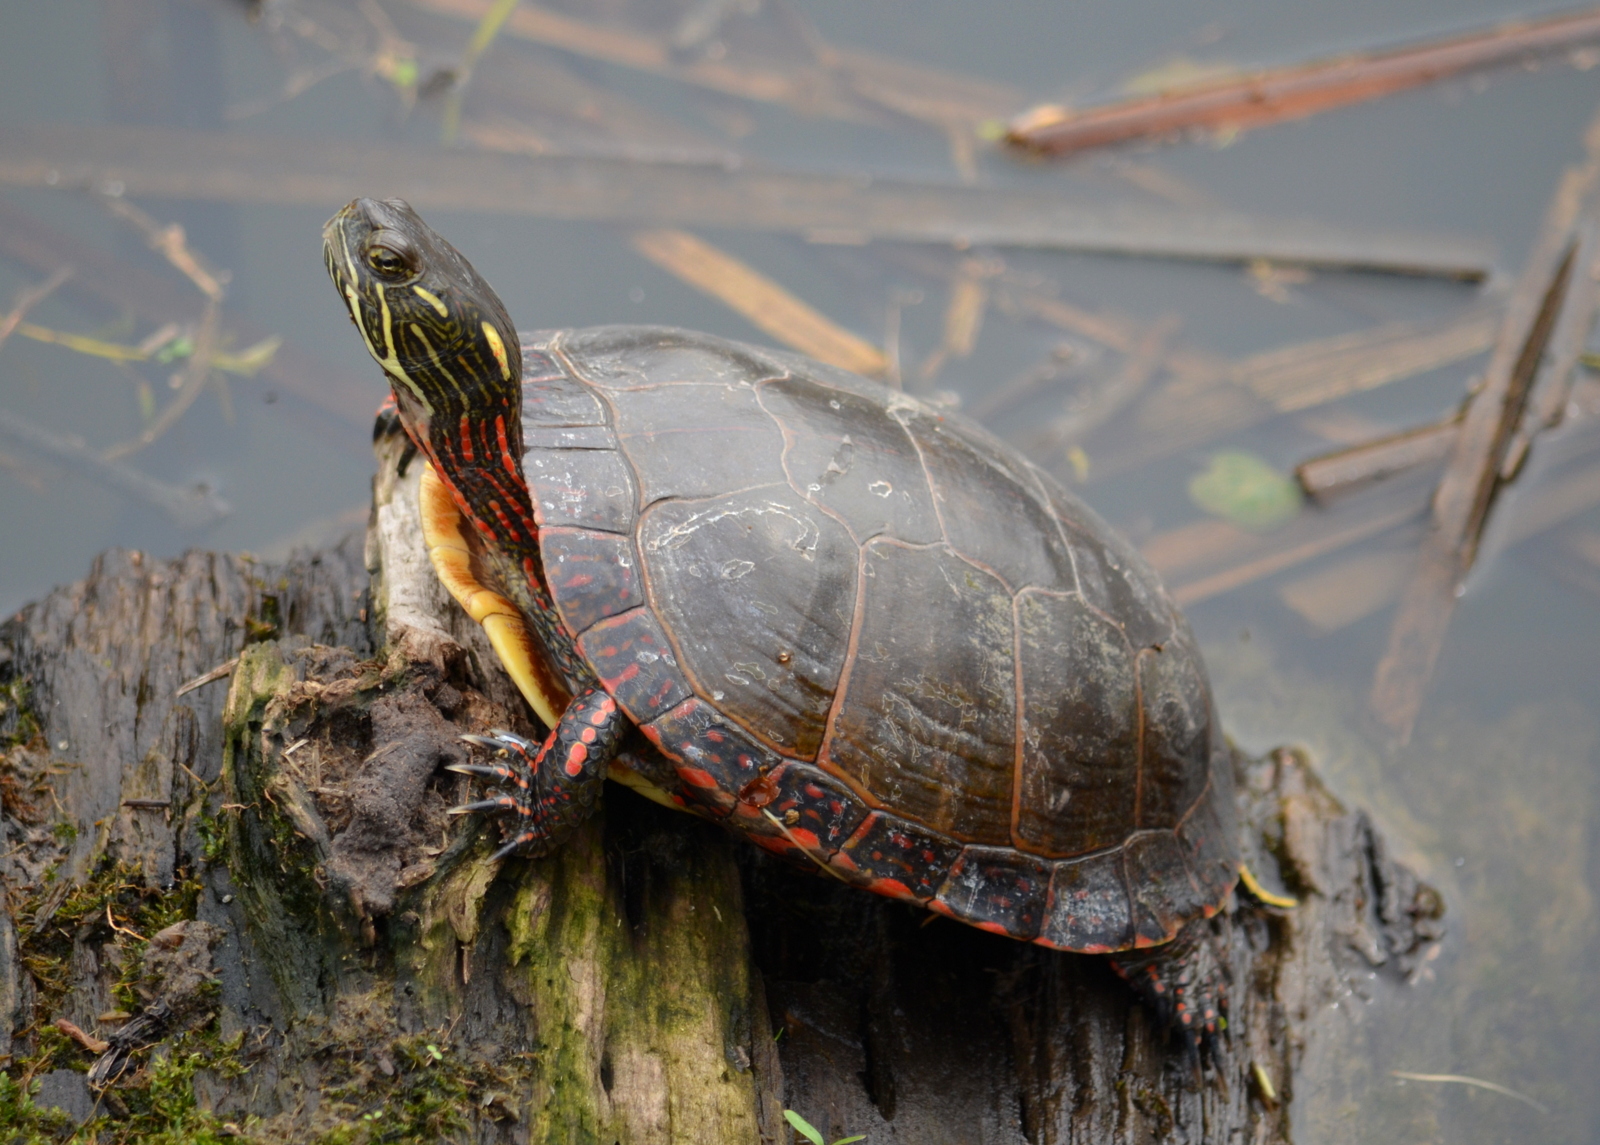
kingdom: Animalia
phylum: Chordata
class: Testudines
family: Emydidae
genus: Chrysemys
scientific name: Chrysemys picta
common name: Painted turtle
